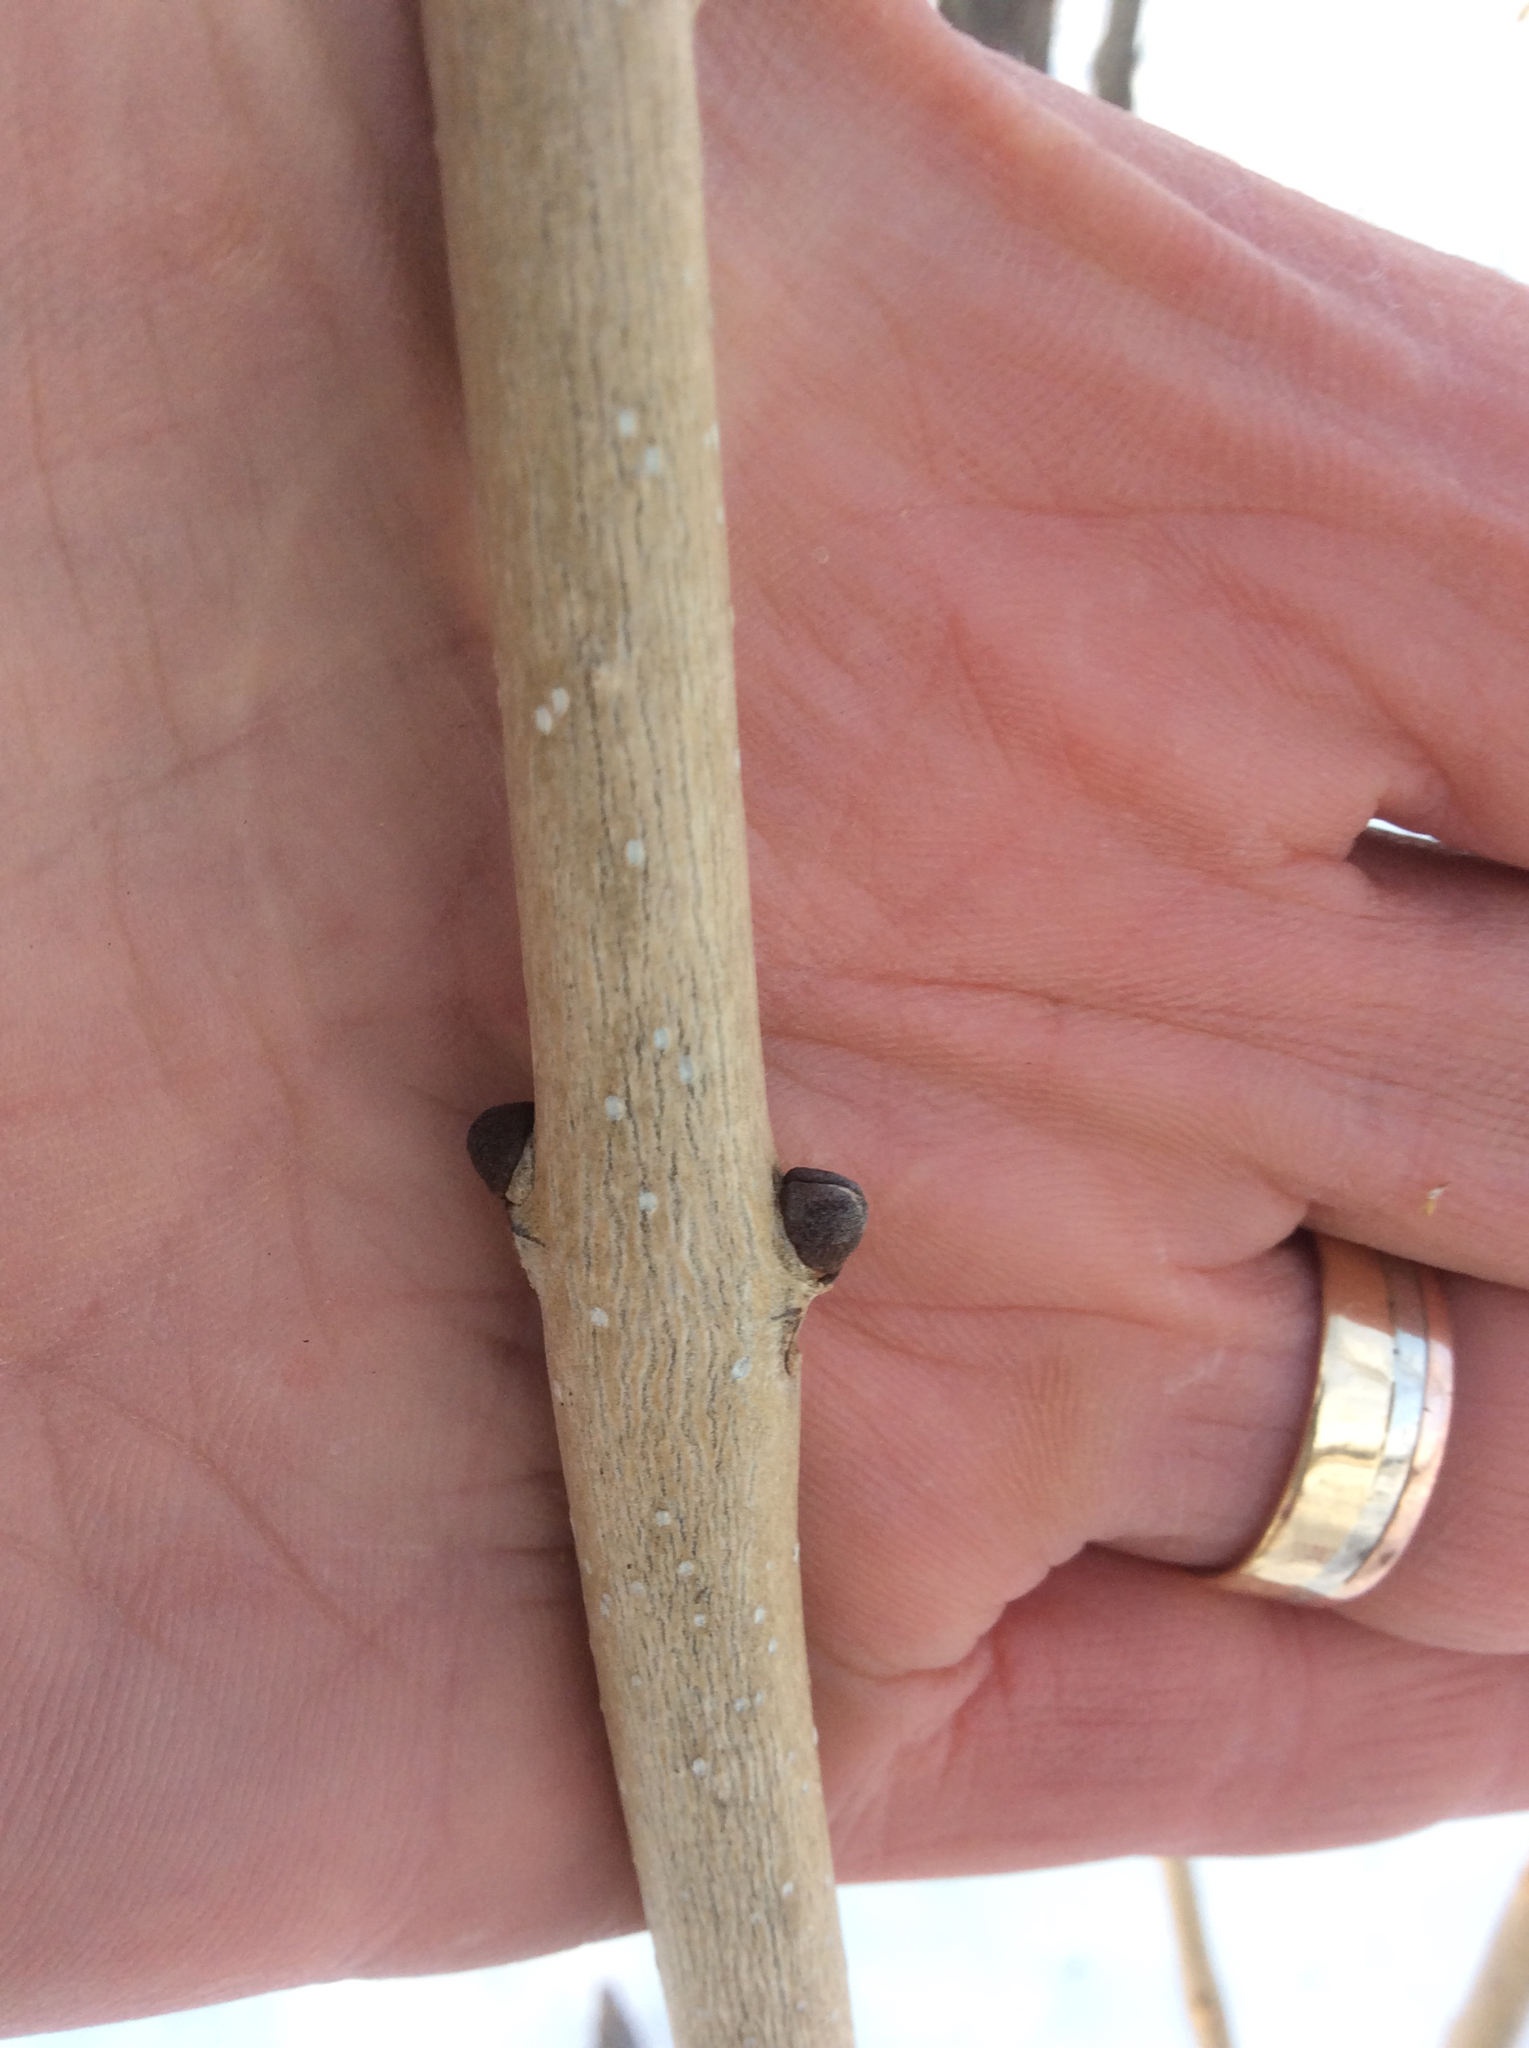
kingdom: Plantae
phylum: Tracheophyta
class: Magnoliopsida
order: Lamiales
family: Oleaceae
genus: Fraxinus
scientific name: Fraxinus nigra
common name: Black ash
